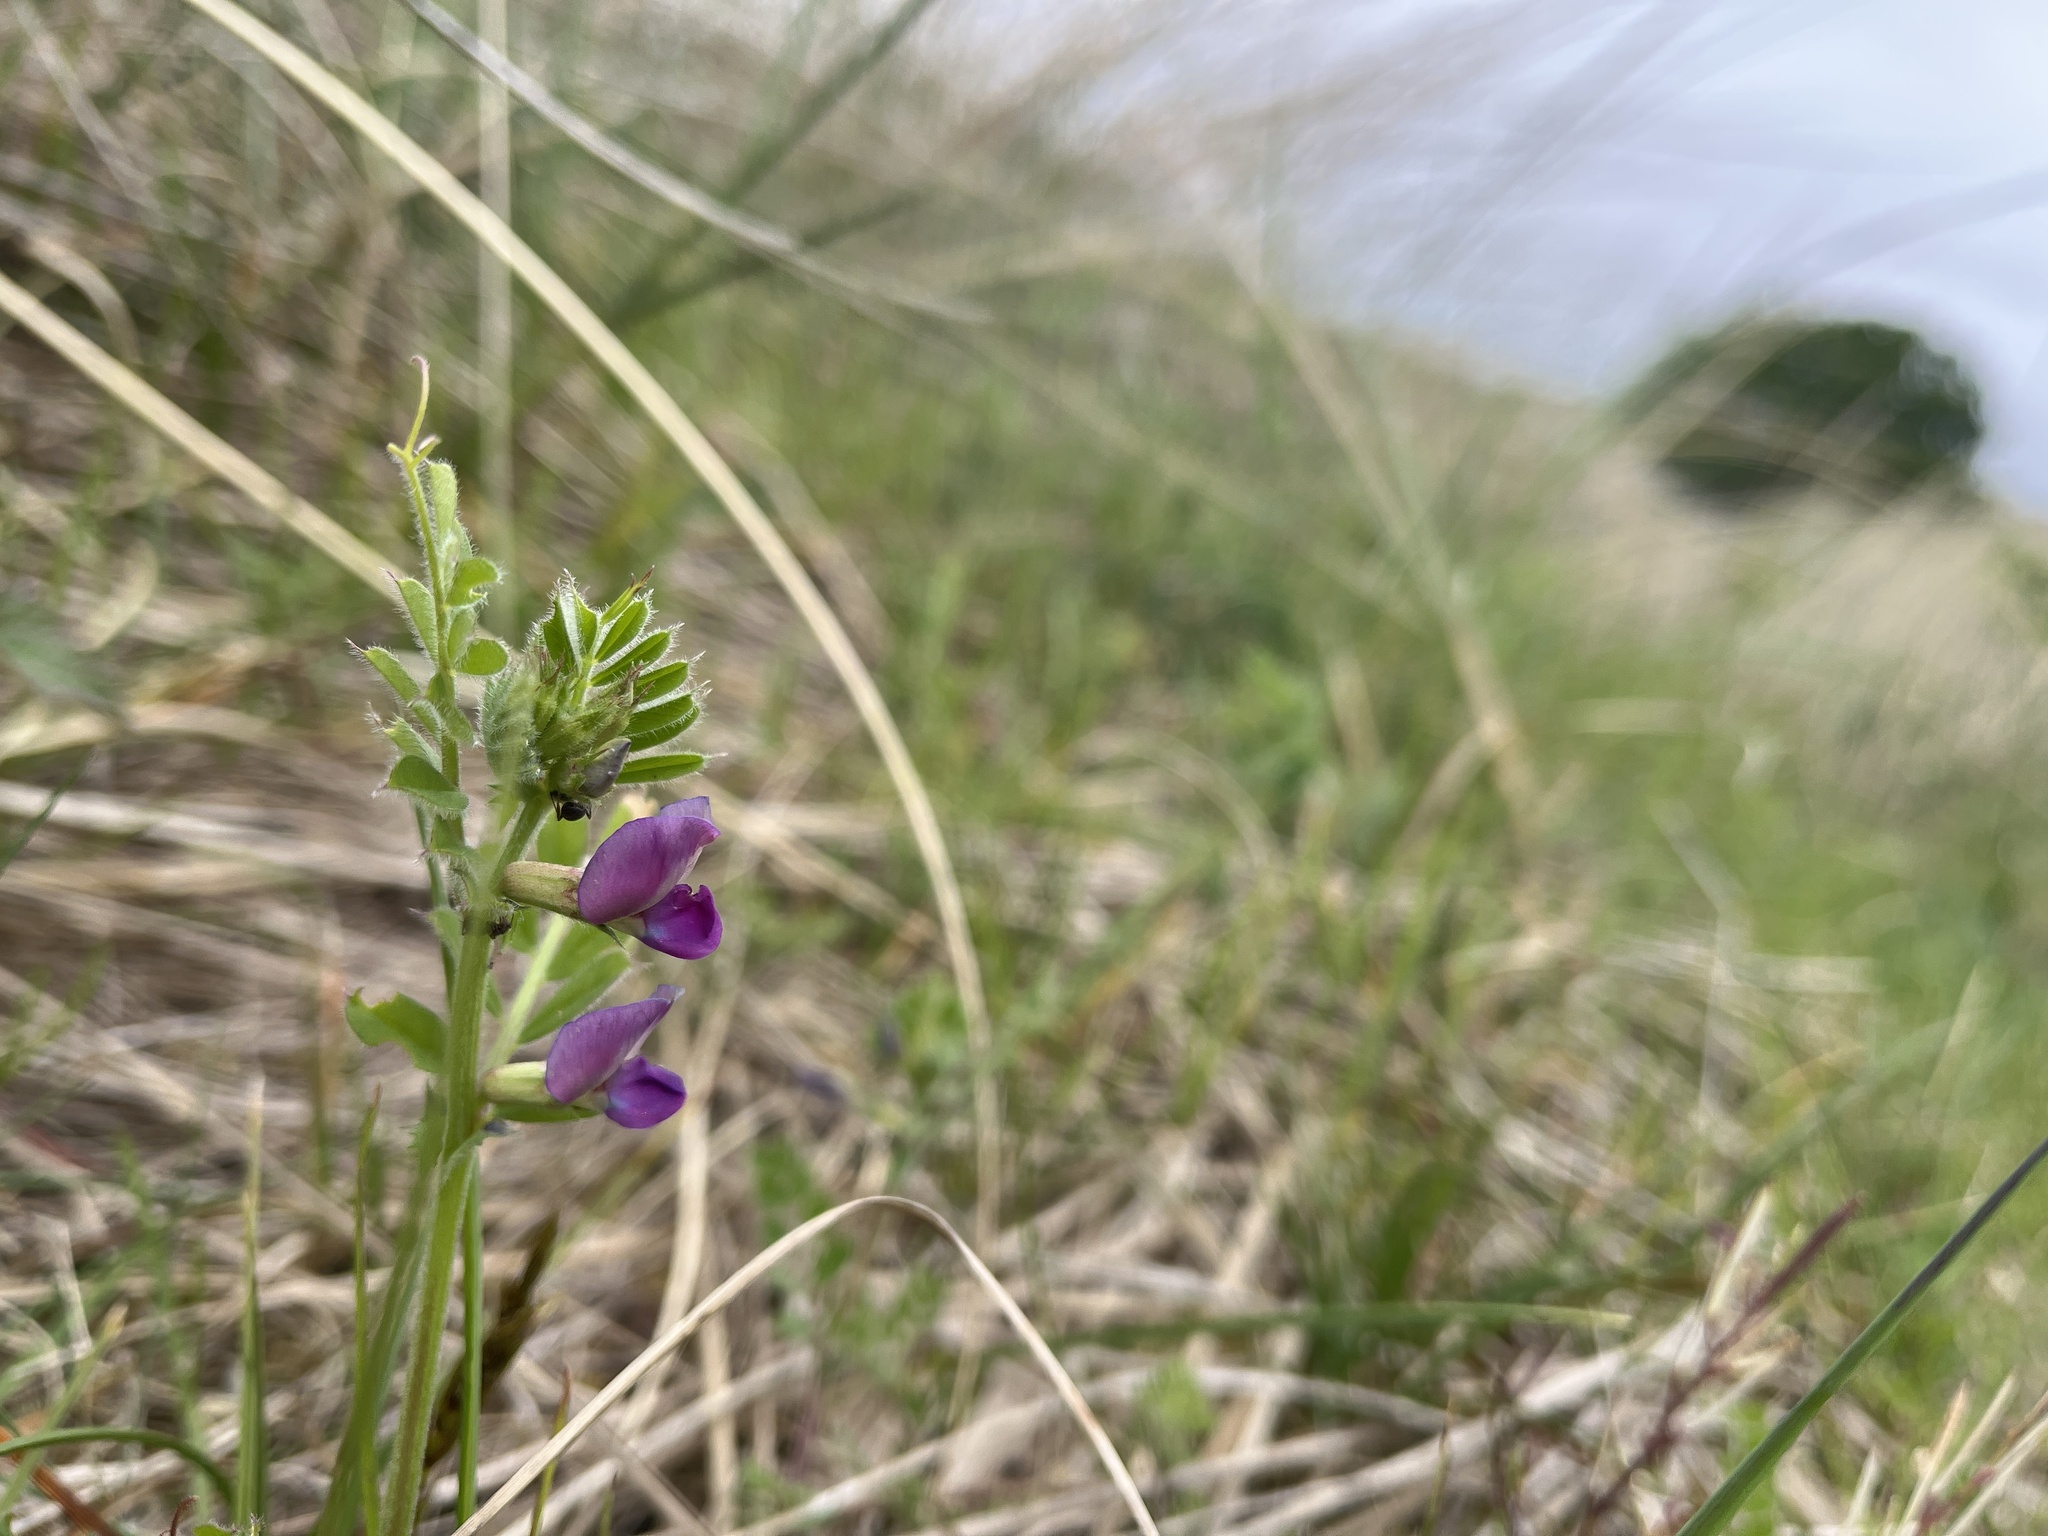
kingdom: Plantae
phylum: Tracheophyta
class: Magnoliopsida
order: Fabales
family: Fabaceae
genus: Vicia
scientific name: Vicia sativa
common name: Garden vetch
